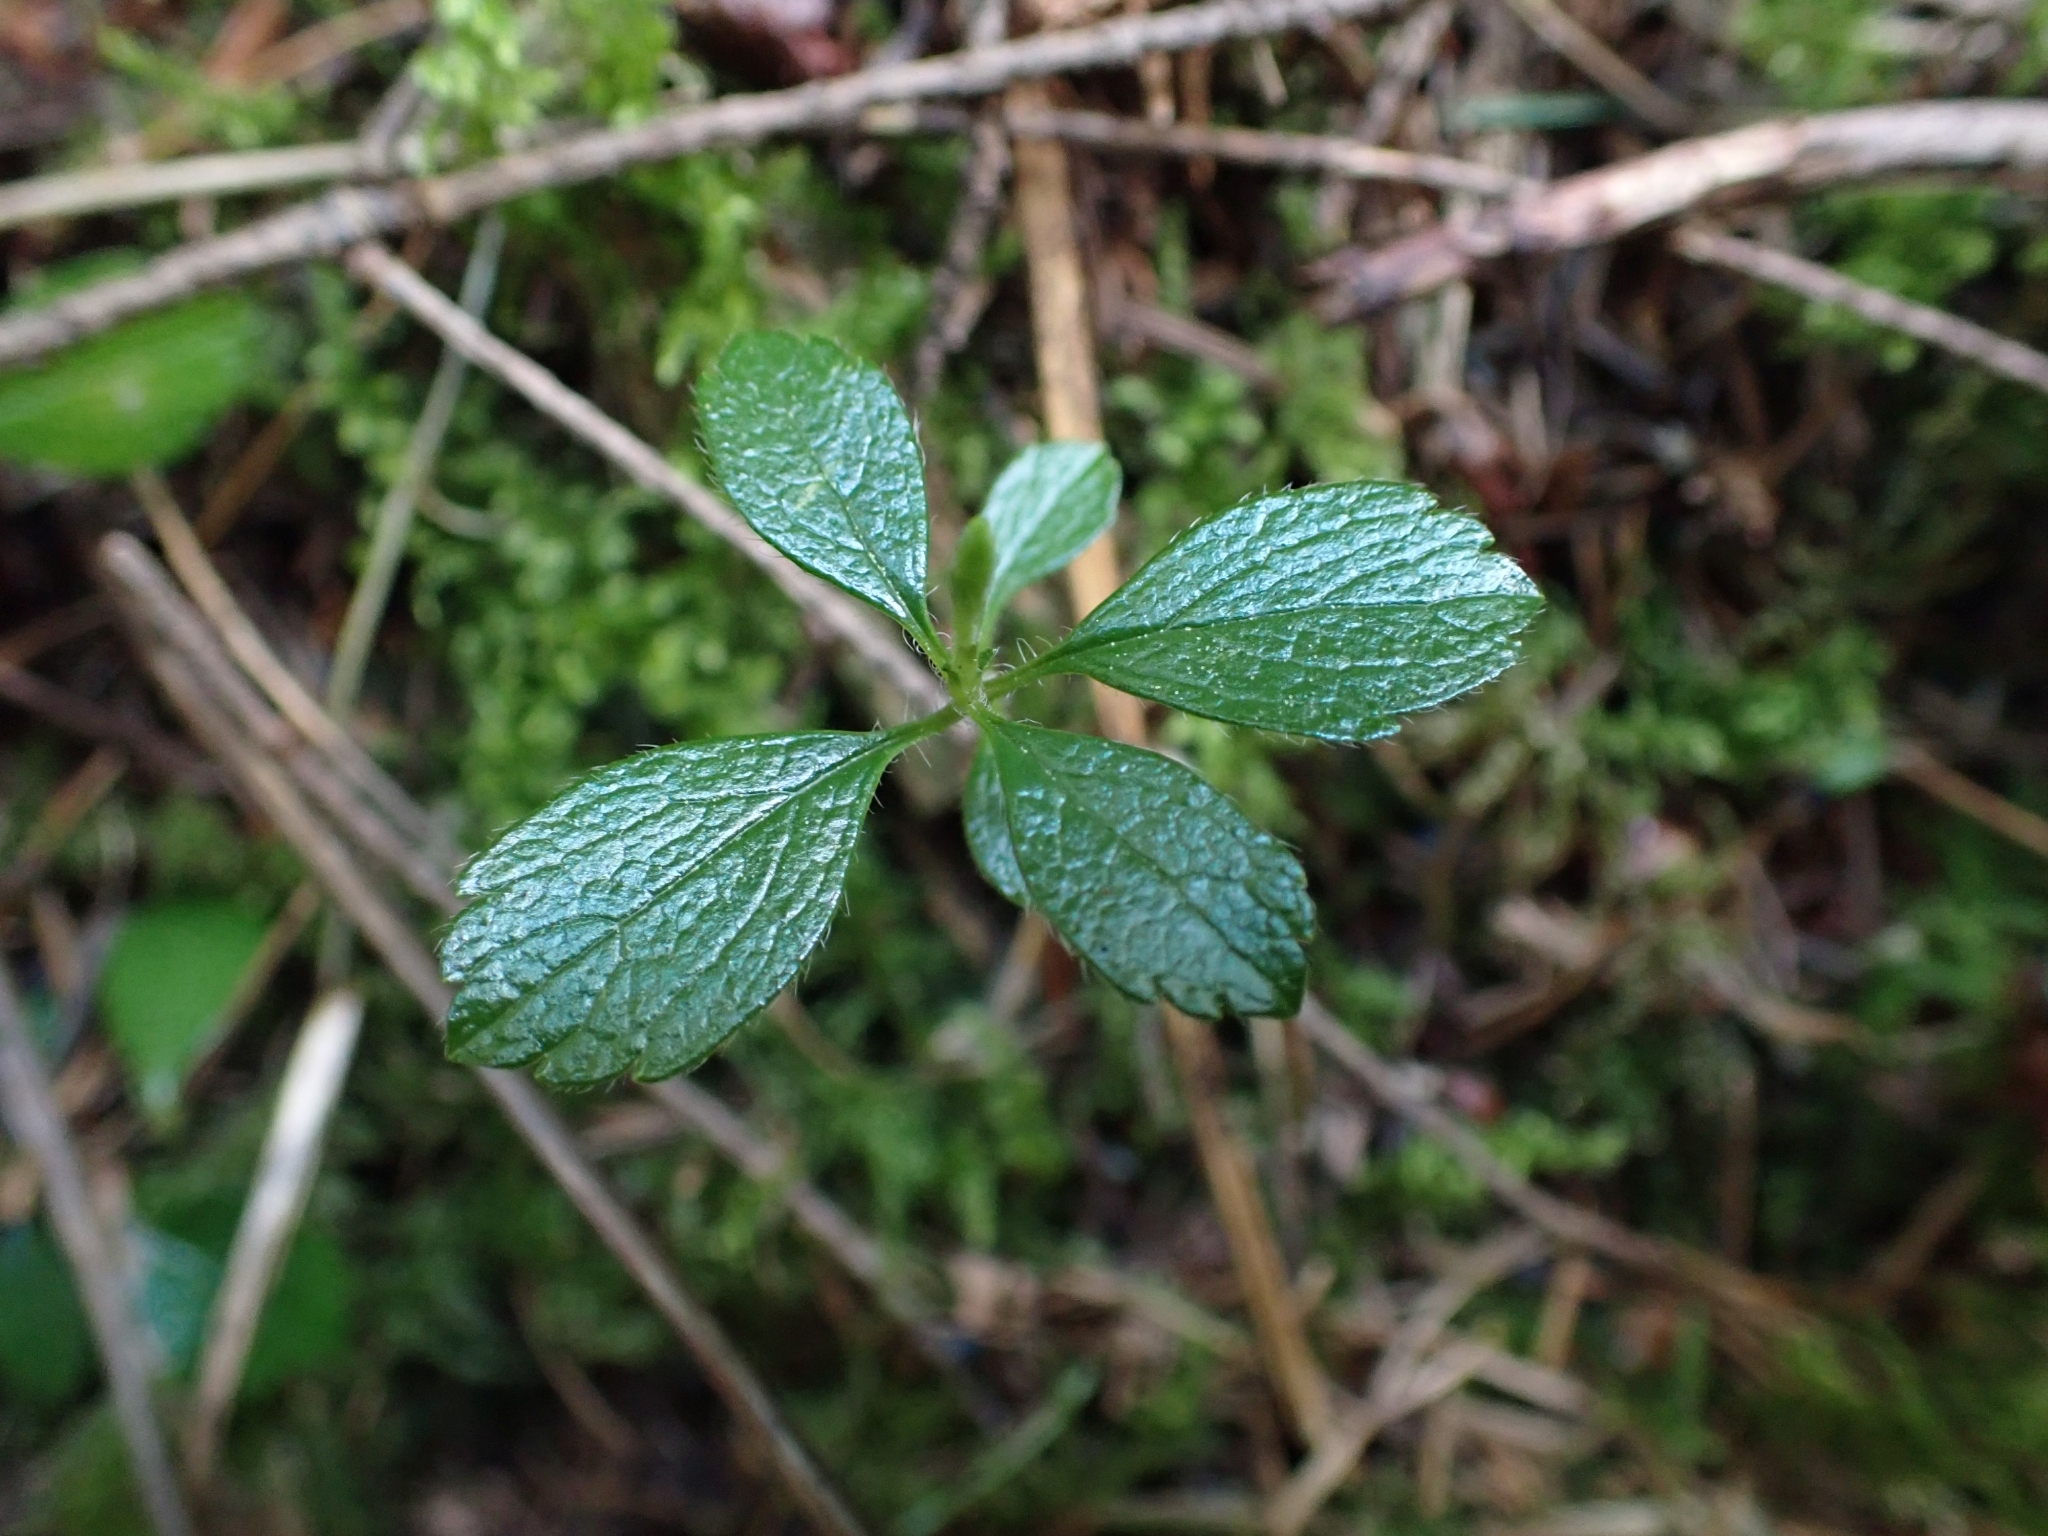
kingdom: Plantae
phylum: Tracheophyta
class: Magnoliopsida
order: Dipsacales
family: Caprifoliaceae
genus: Linnaea
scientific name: Linnaea borealis
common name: Twinflower
